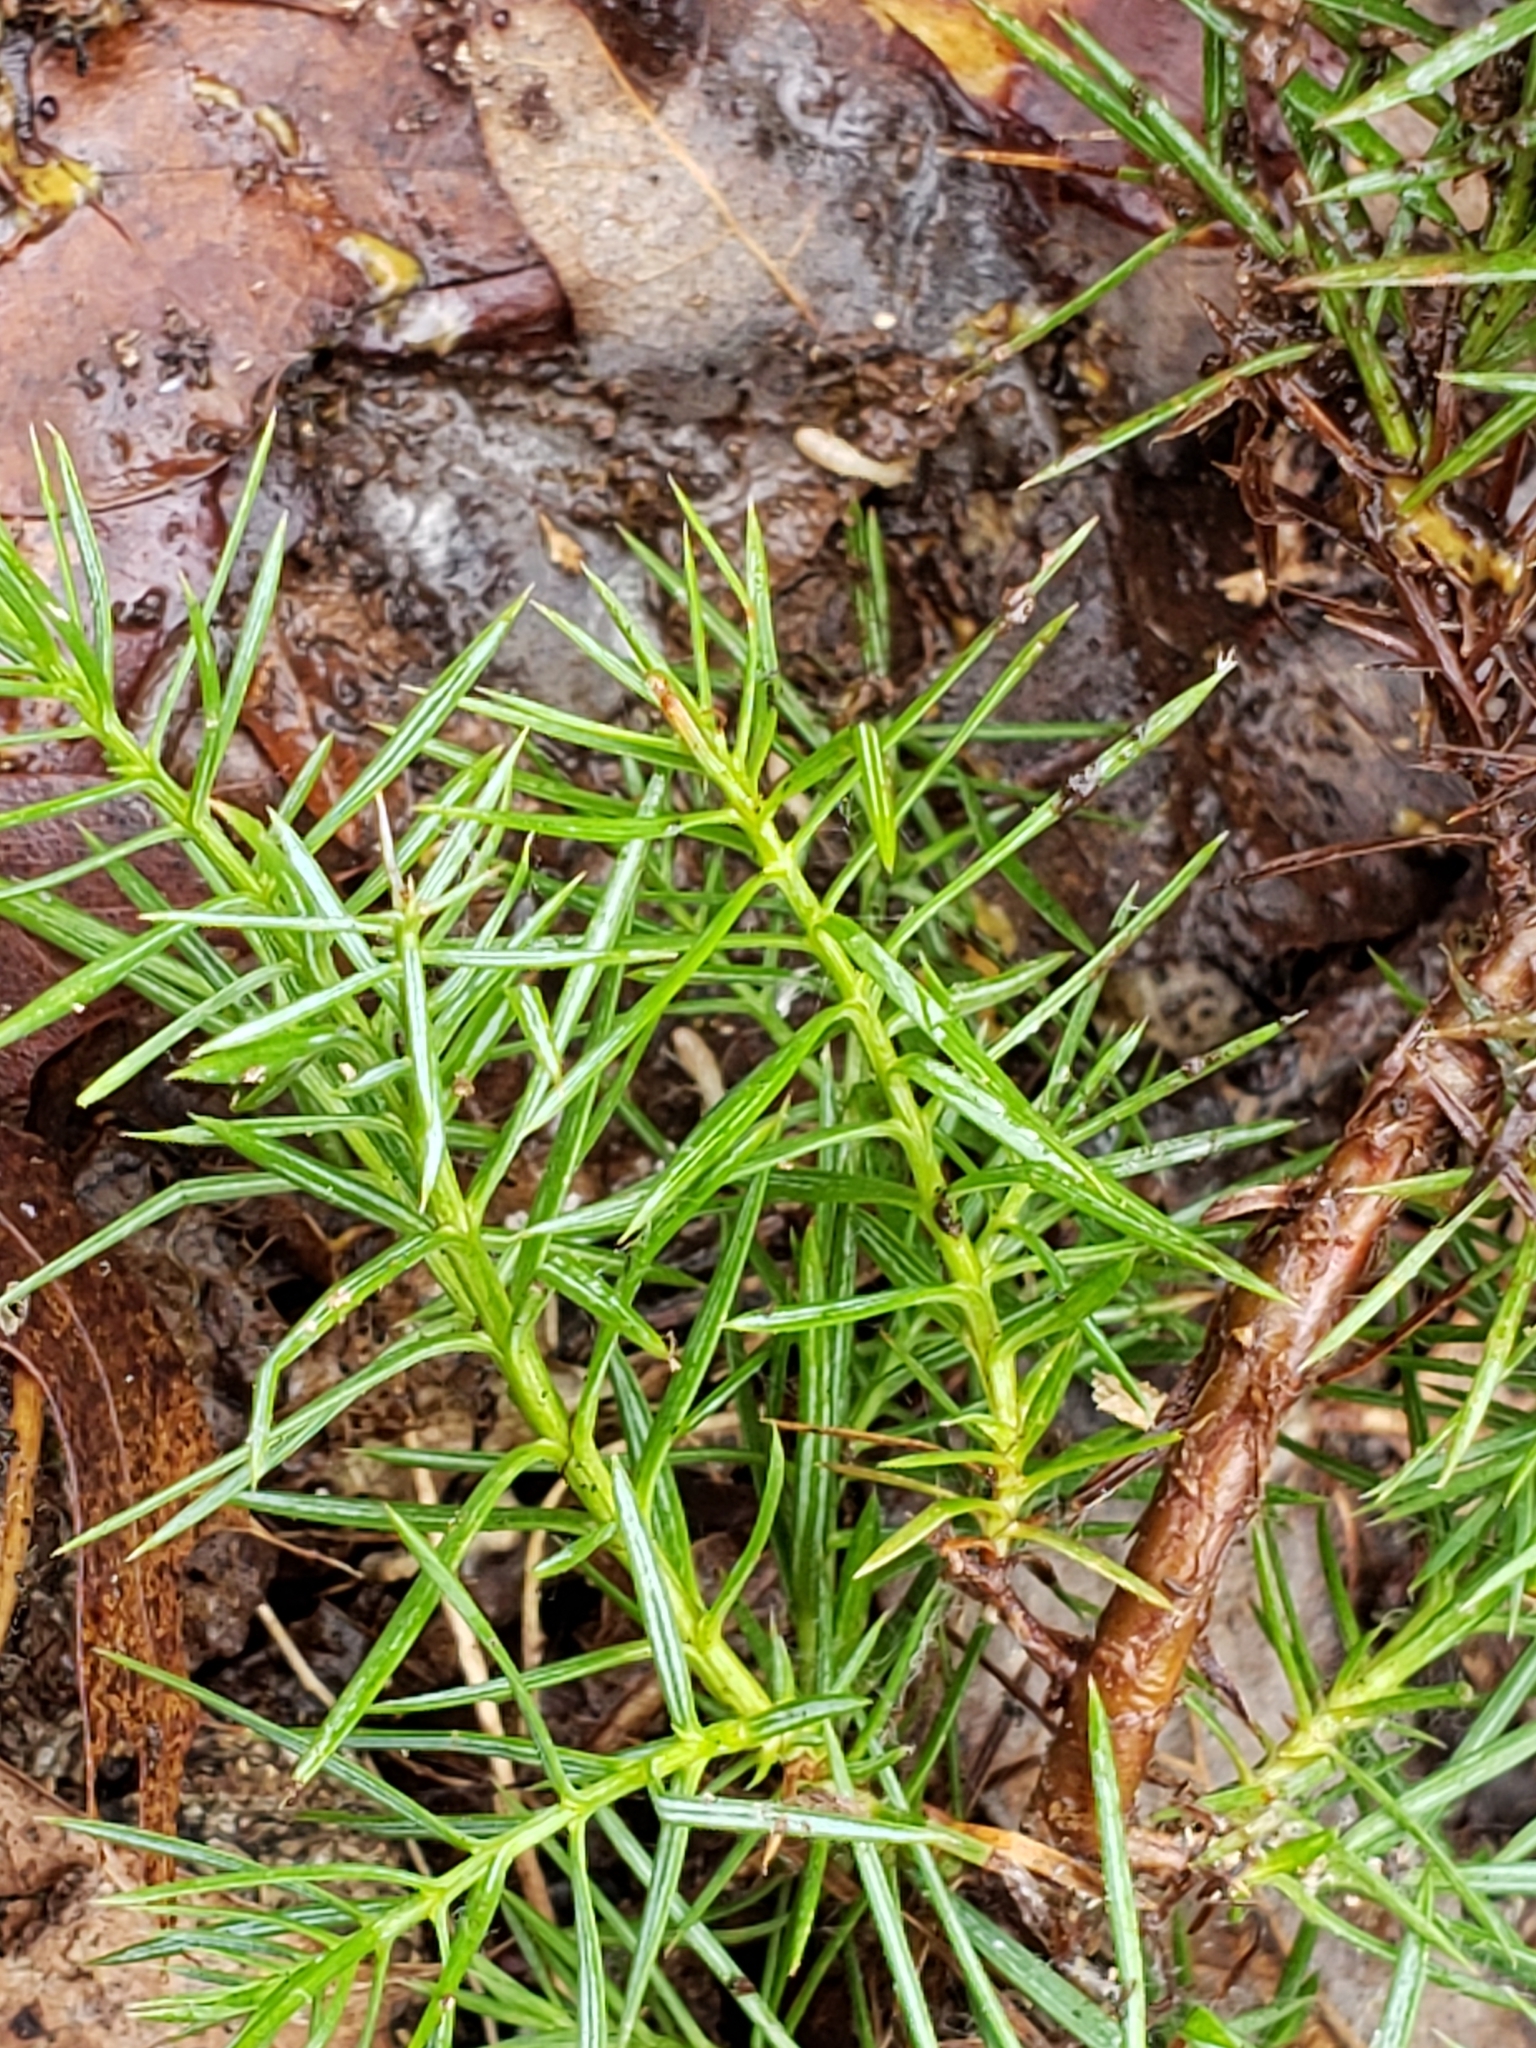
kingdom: Plantae
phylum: Tracheophyta
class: Pinopsida
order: Pinales
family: Cupressaceae
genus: Juniperus
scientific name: Juniperus virginiana
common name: Red juniper
